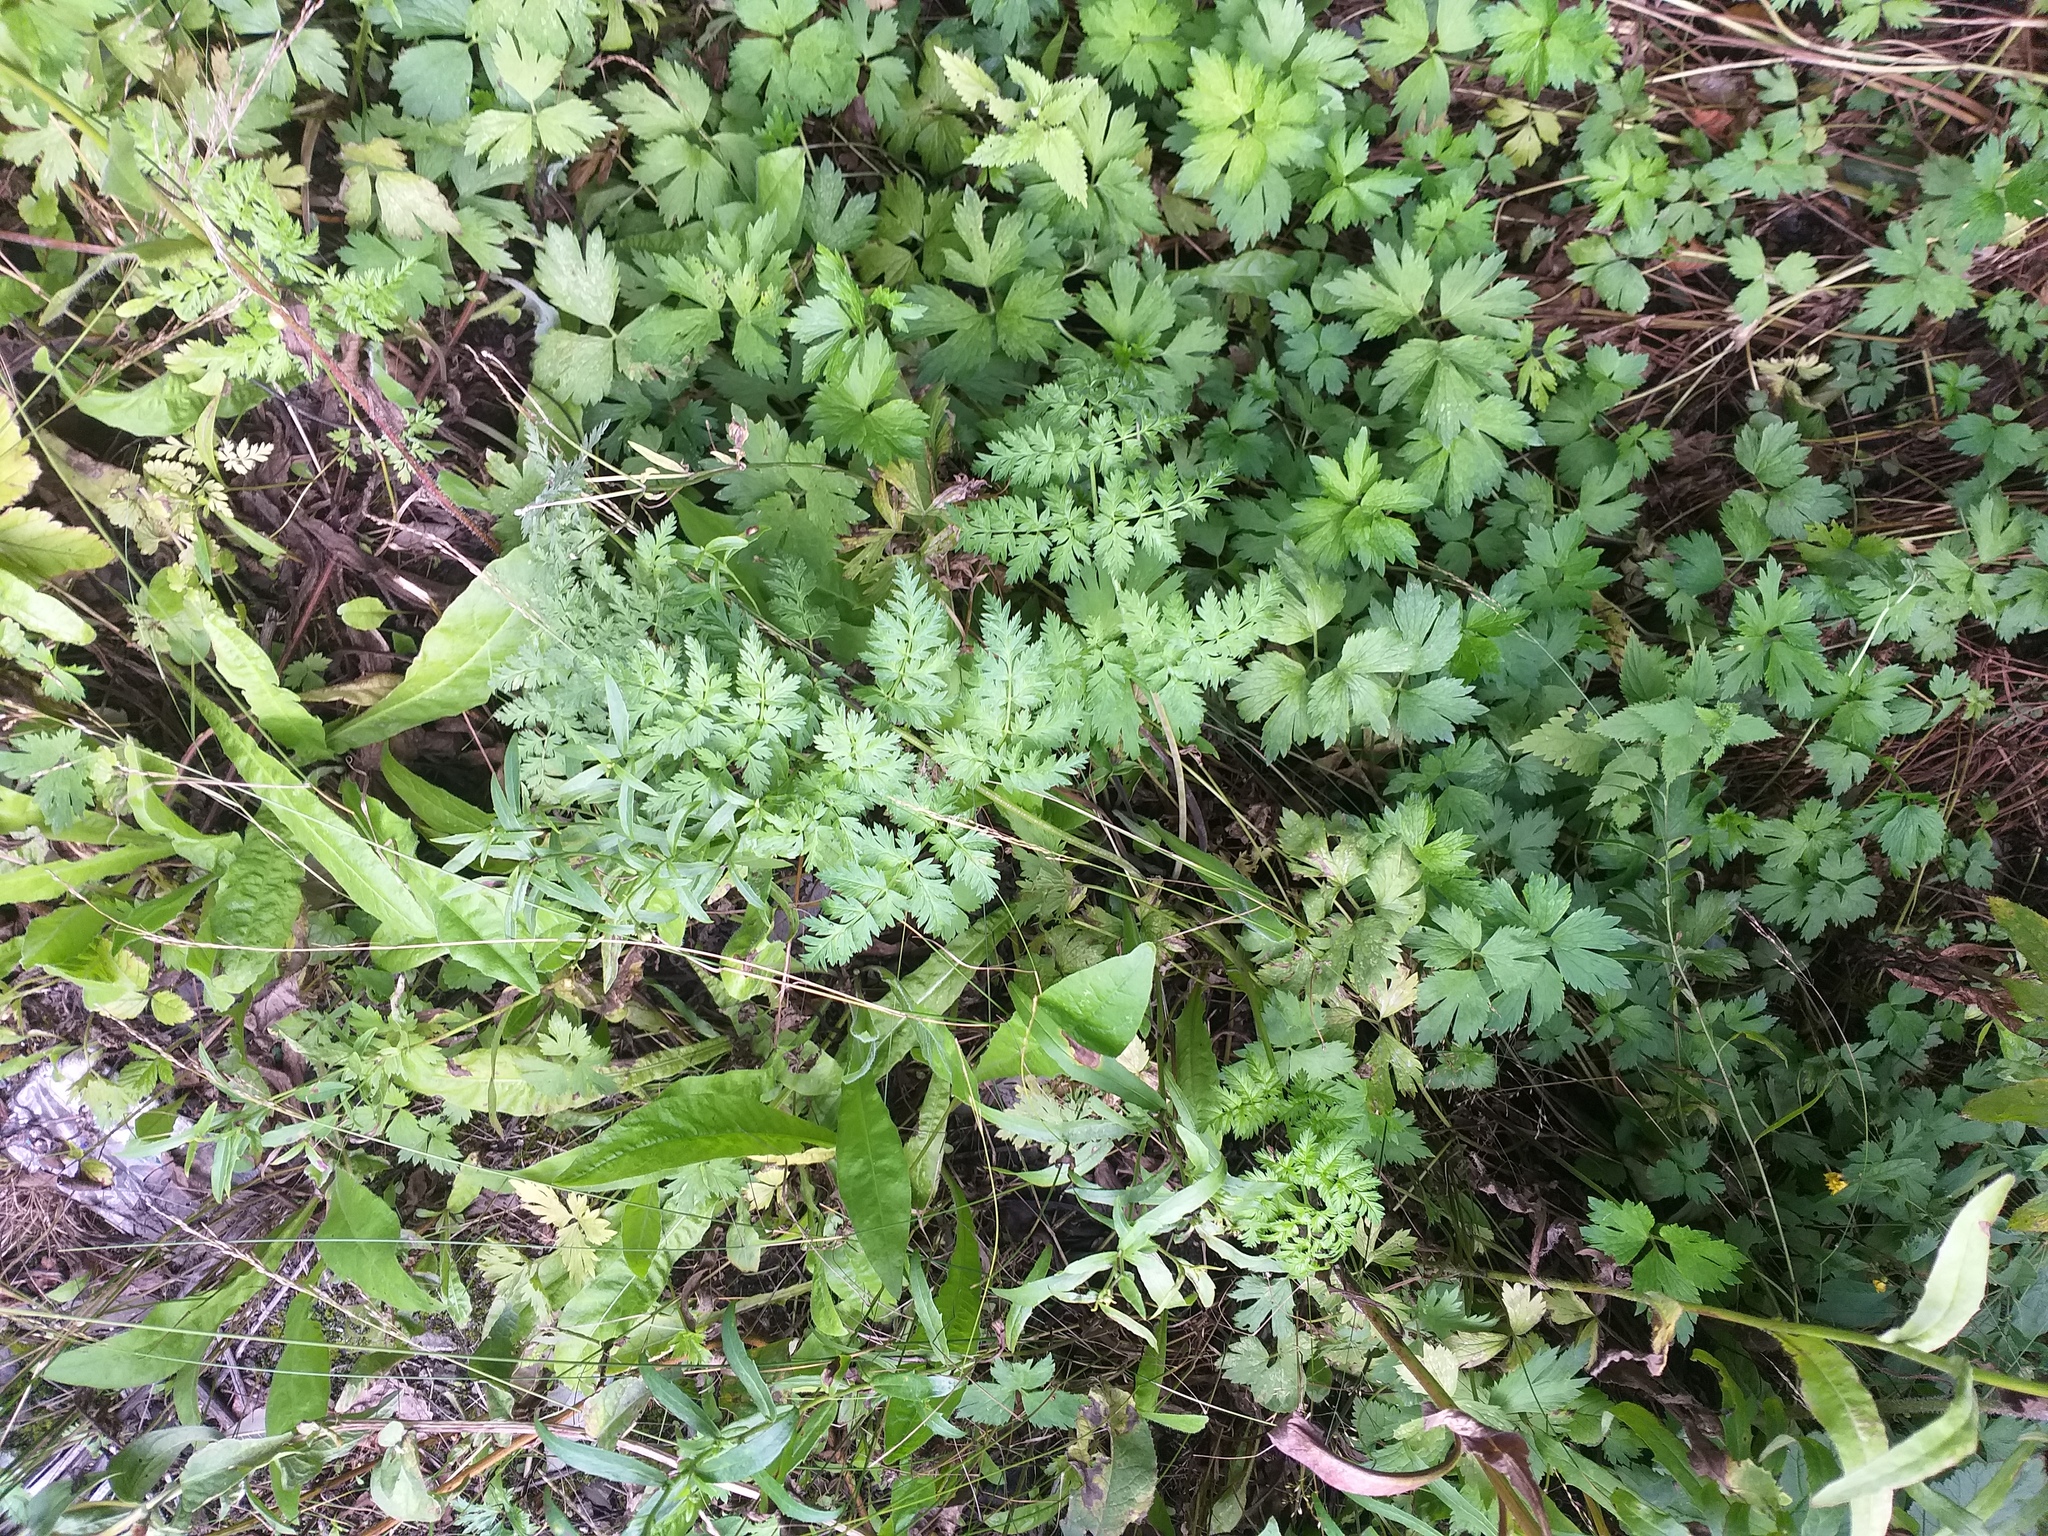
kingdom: Plantae
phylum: Tracheophyta
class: Magnoliopsida
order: Apiales
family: Apiaceae
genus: Anthriscus
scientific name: Anthriscus sylvestris
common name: Cow parsley
